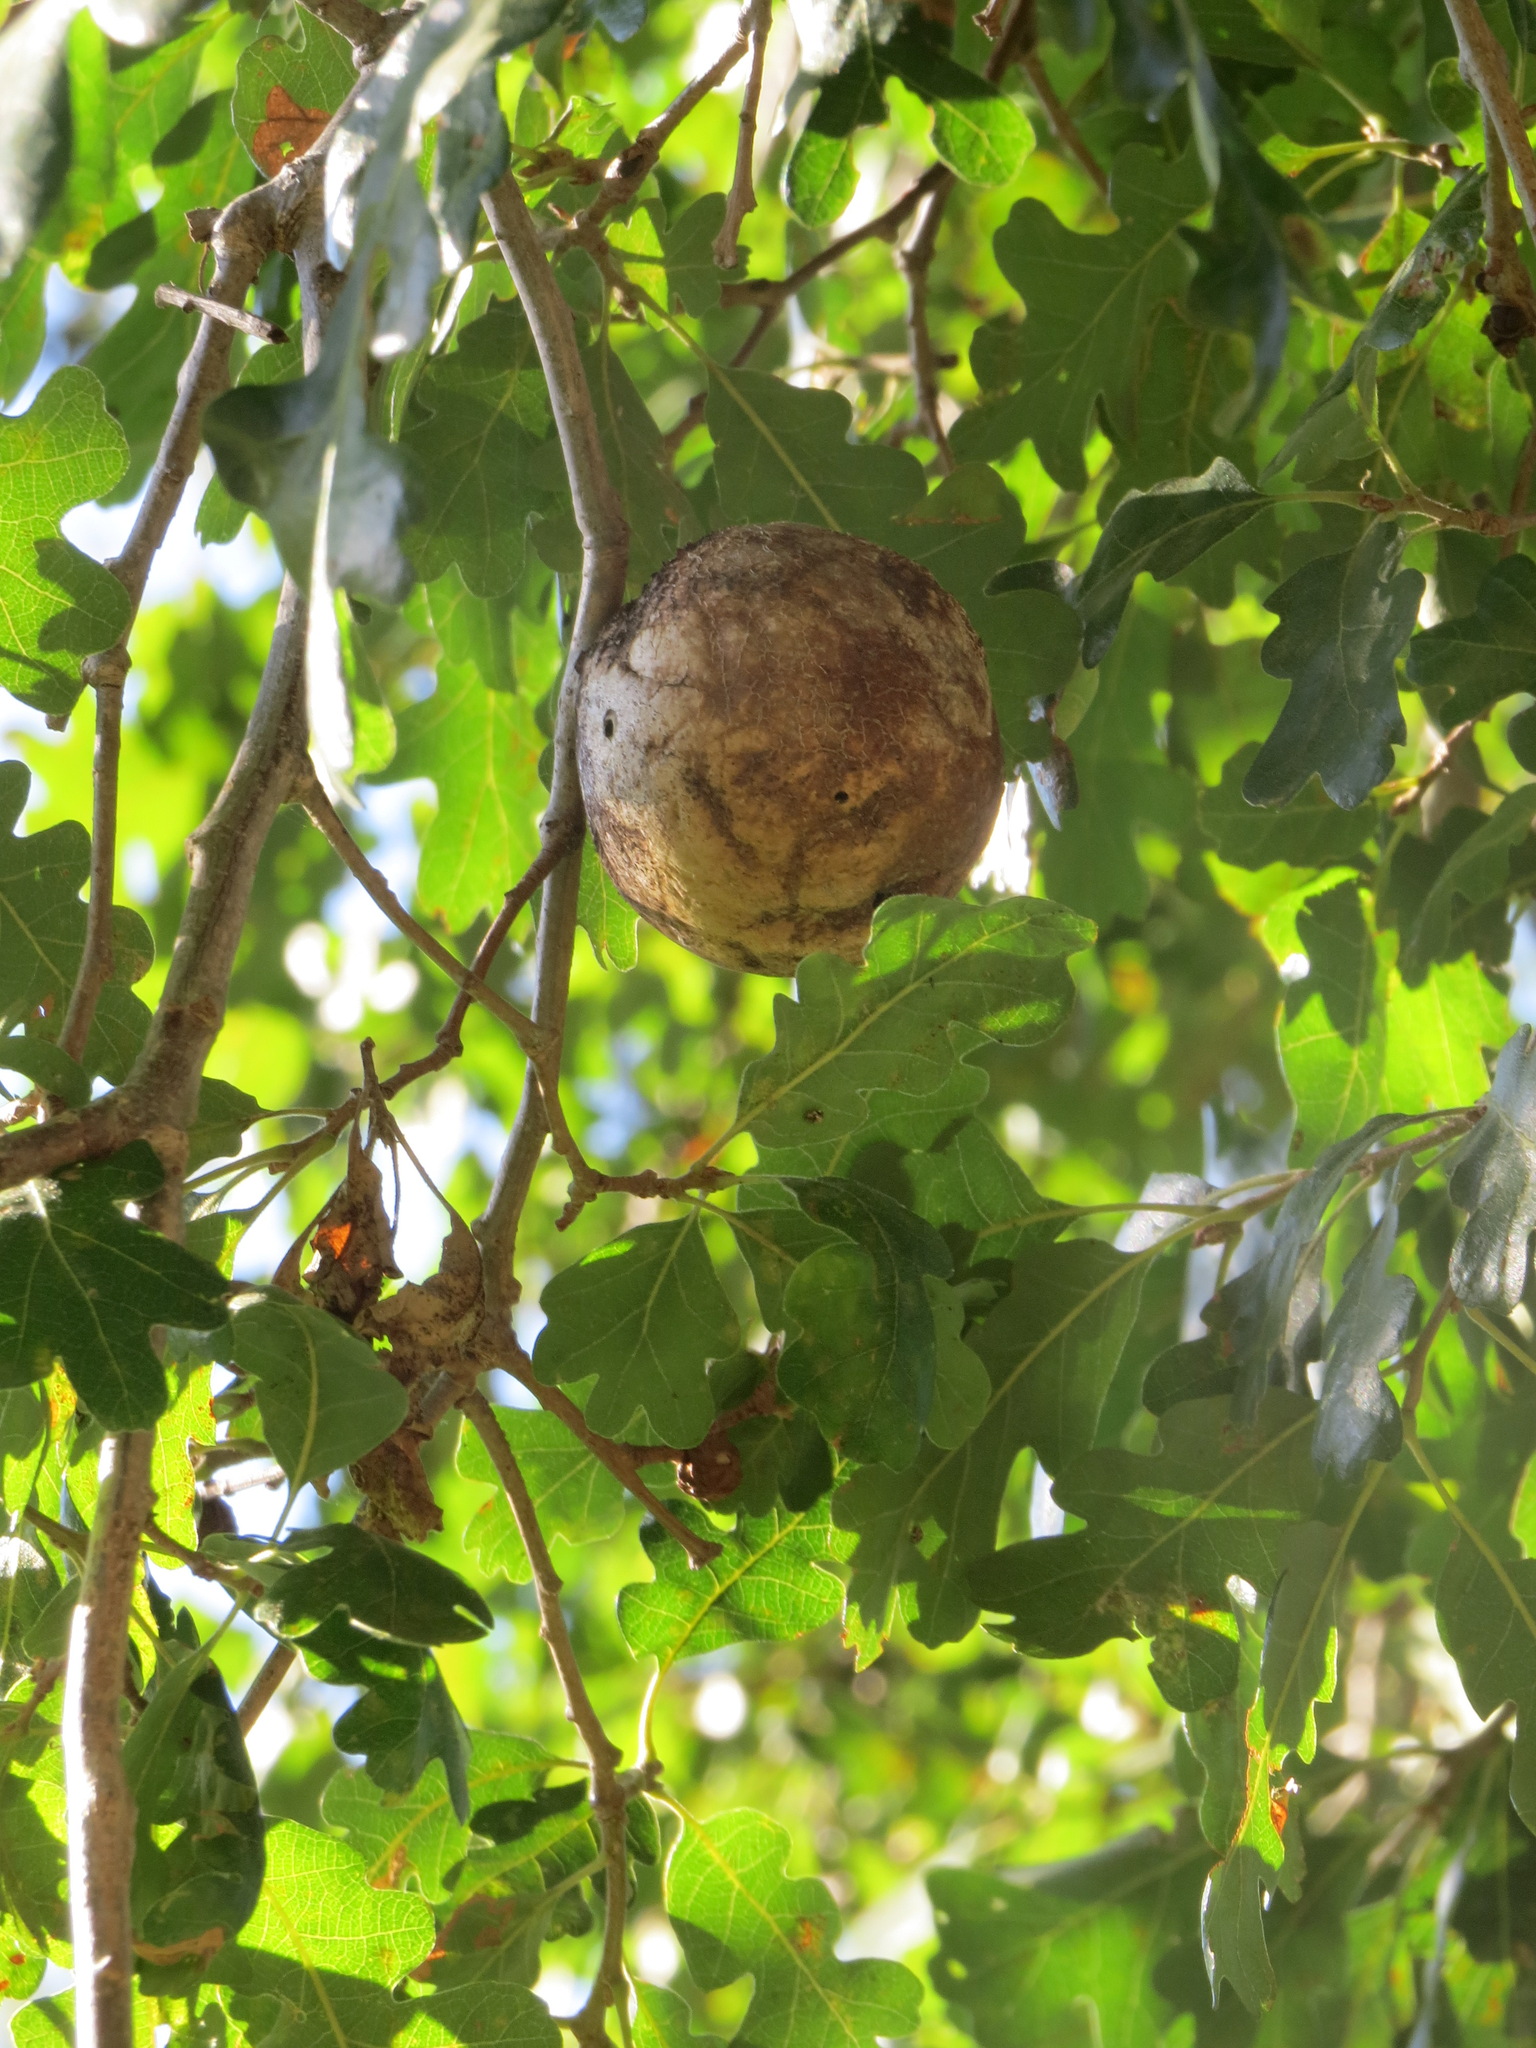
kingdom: Animalia
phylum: Arthropoda
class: Insecta
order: Hymenoptera
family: Cynipidae
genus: Andricus
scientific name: Andricus quercuscalifornicus
